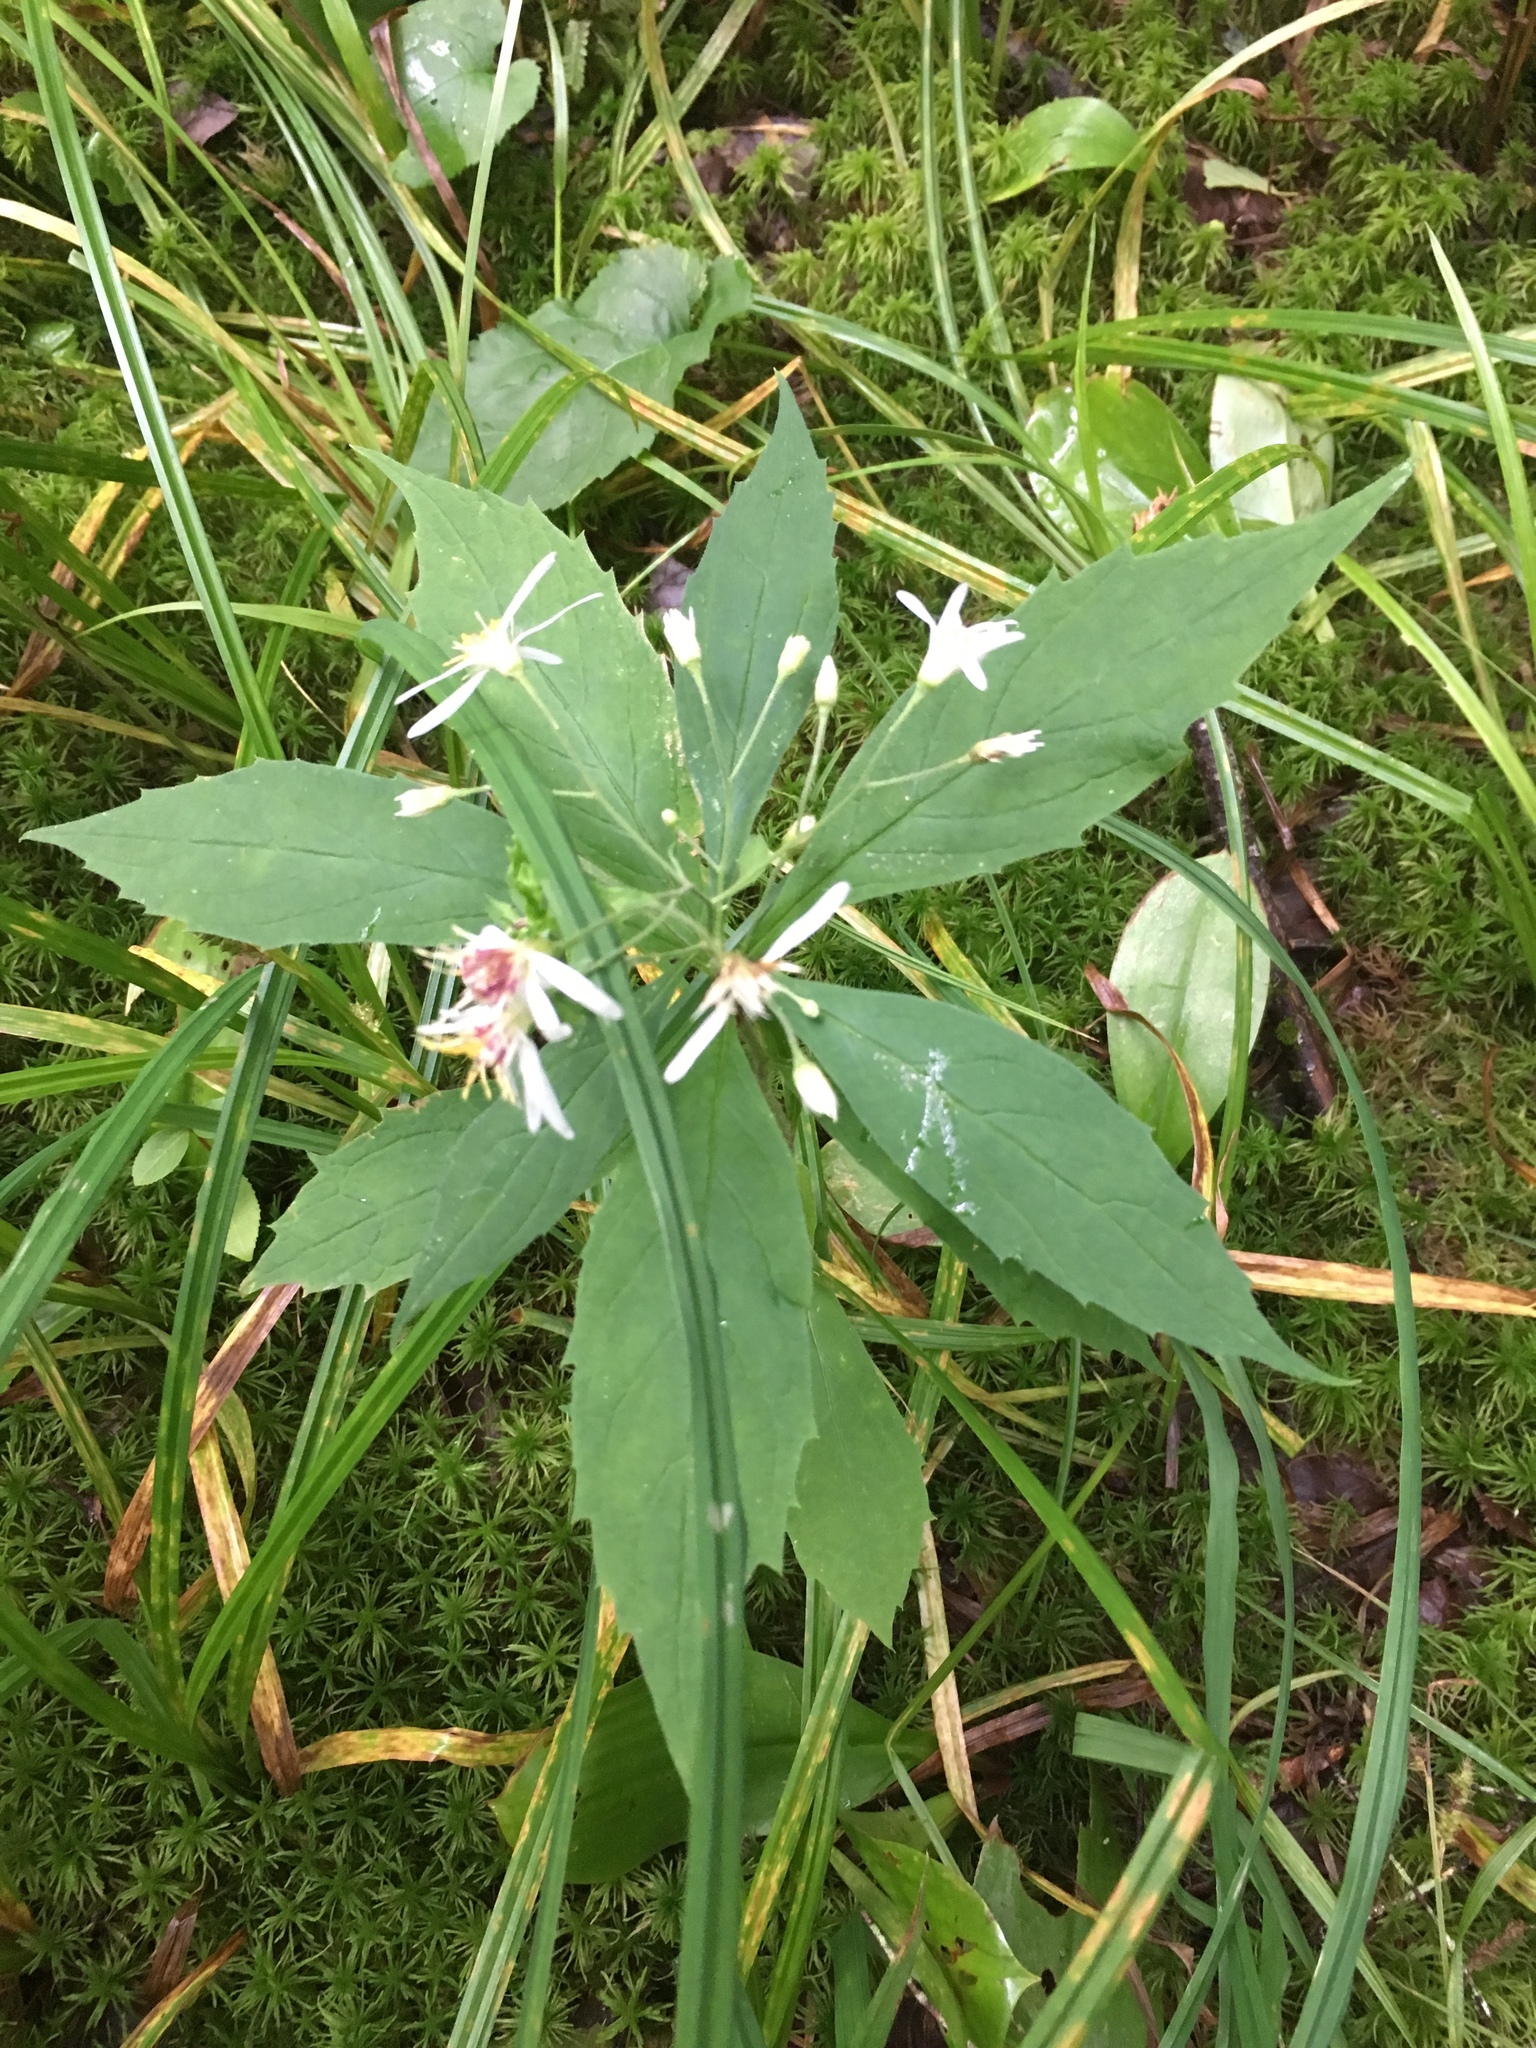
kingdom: Plantae
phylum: Tracheophyta
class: Magnoliopsida
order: Asterales
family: Asteraceae
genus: Oclemena
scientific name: Oclemena acuminata
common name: Mountain aster
